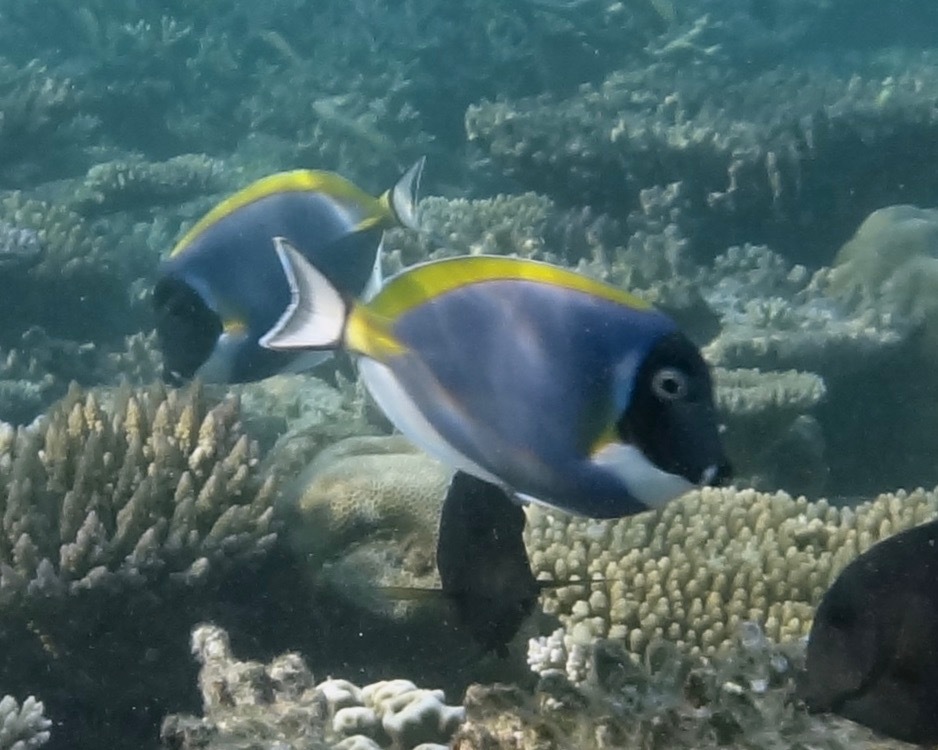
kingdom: Animalia
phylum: Chordata
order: Perciformes
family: Acanthuridae
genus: Acanthurus
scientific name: Acanthurus leucosternon
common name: Blue surgeonfish
